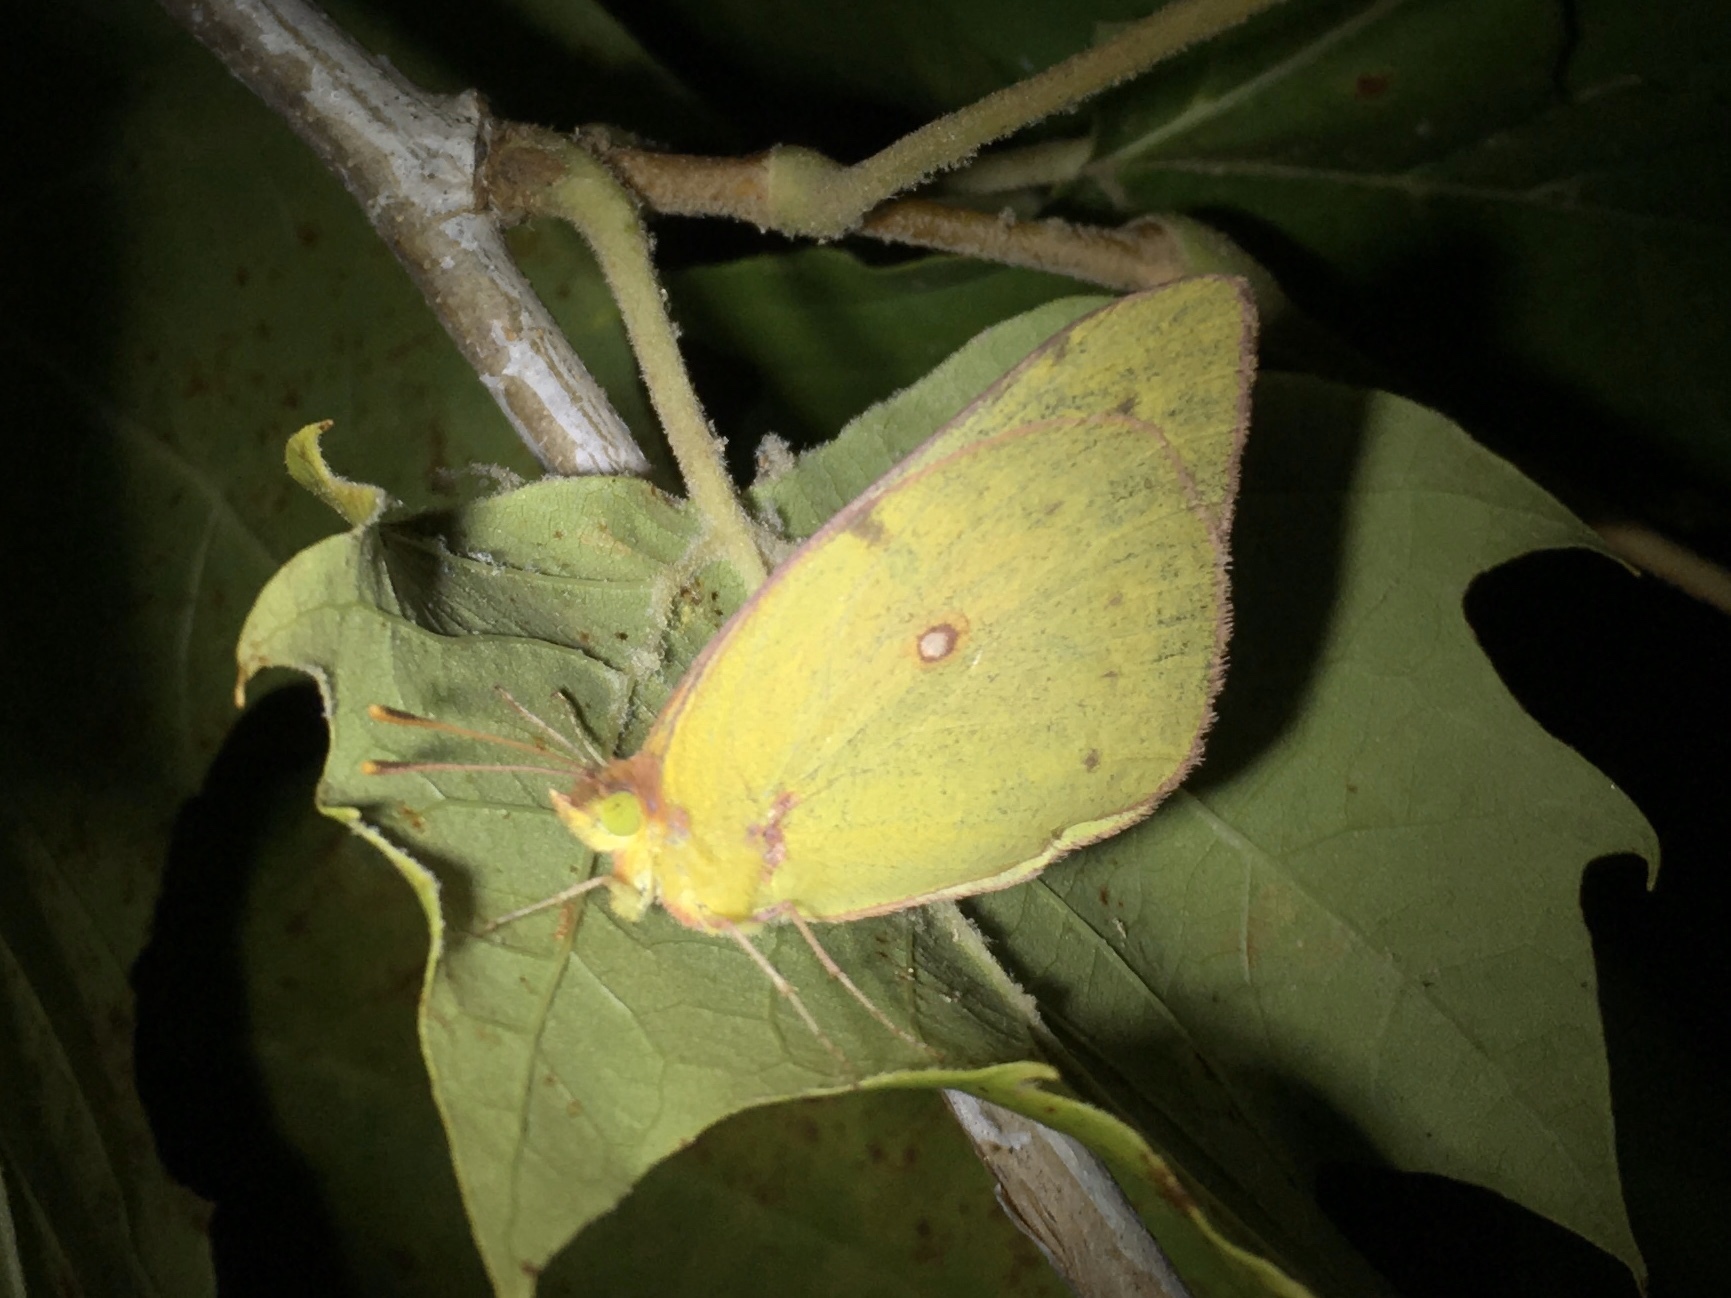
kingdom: Animalia
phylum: Arthropoda
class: Insecta
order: Lepidoptera
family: Pieridae
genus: Colias
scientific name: Colias eurytheme
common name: Alfalfa butterfly
